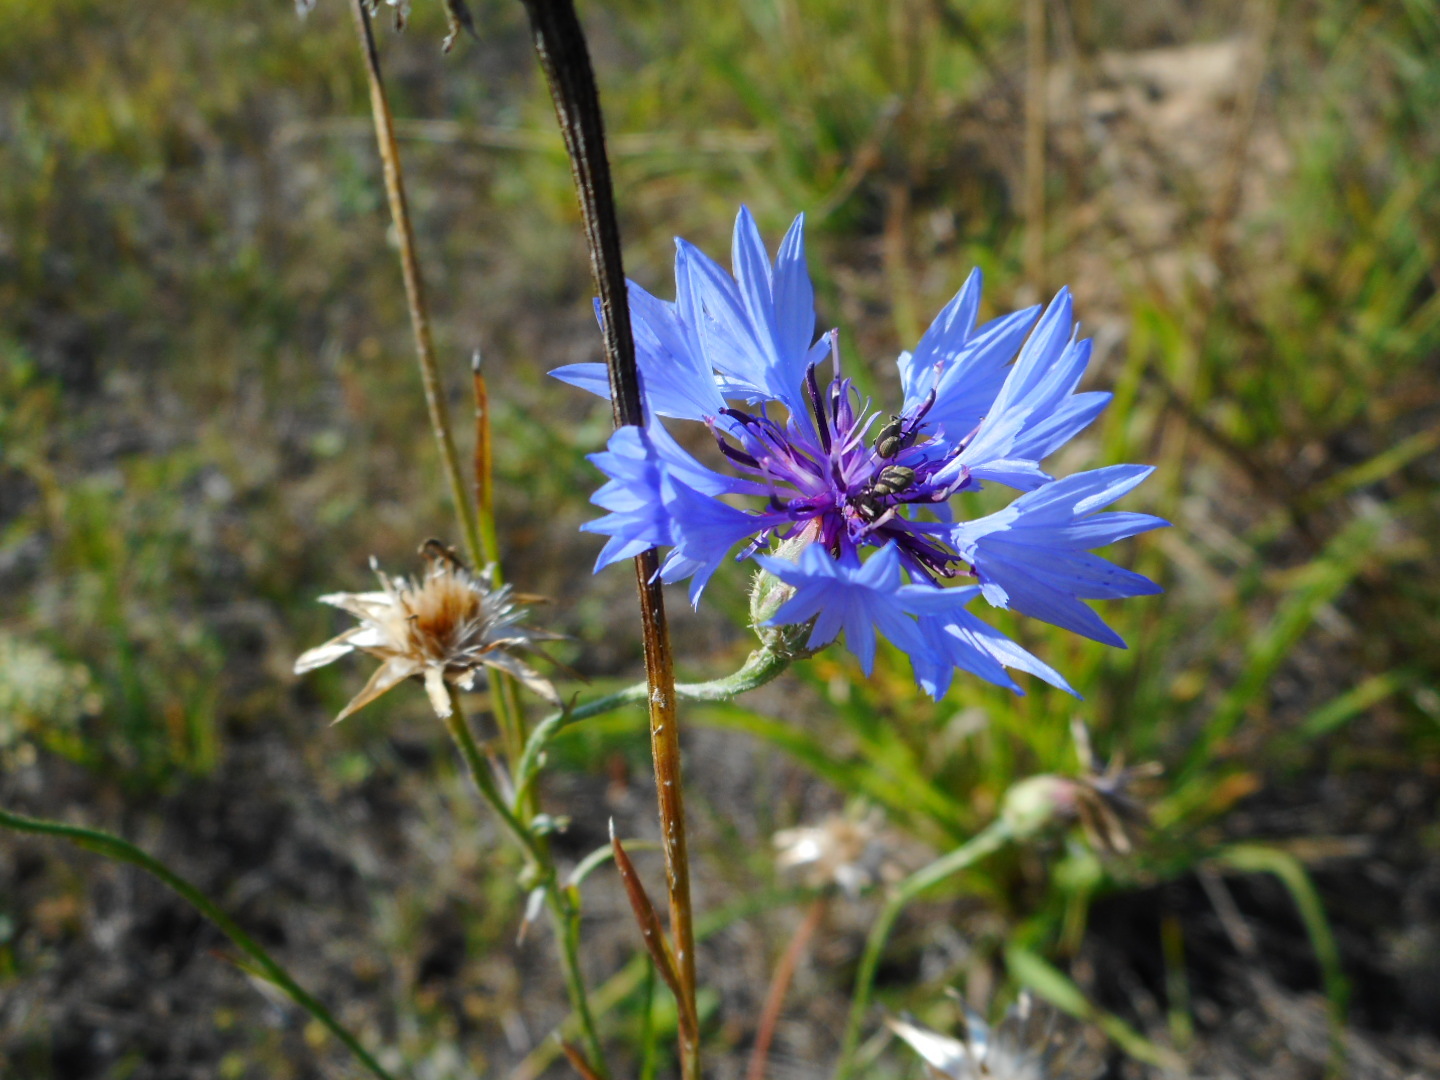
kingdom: Plantae
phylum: Tracheophyta
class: Magnoliopsida
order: Asterales
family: Asteraceae
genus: Centaurea
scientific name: Centaurea cyanus
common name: Cornflower
